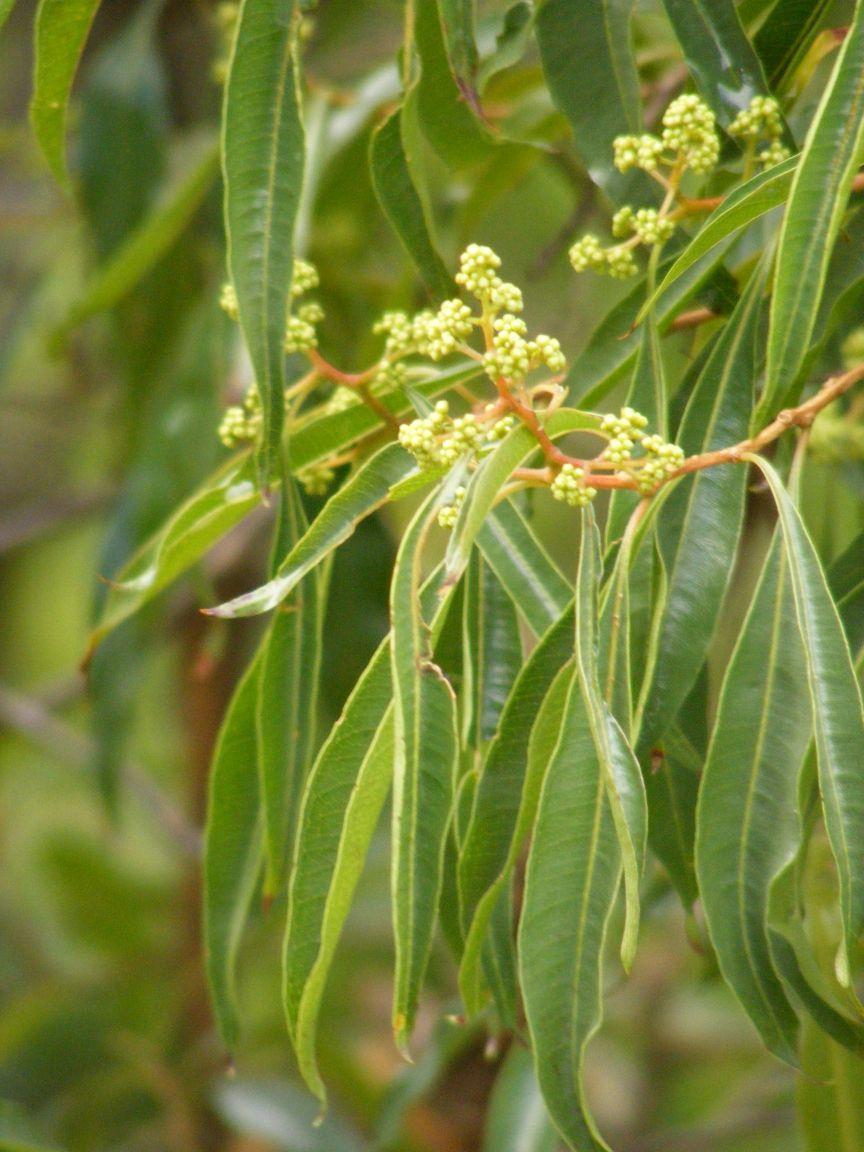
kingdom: Plantae
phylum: Tracheophyta
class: Magnoliopsida
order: Myrtales
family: Myrtaceae
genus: Heteropyxis
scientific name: Heteropyxis natalensis
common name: Lavender tree
